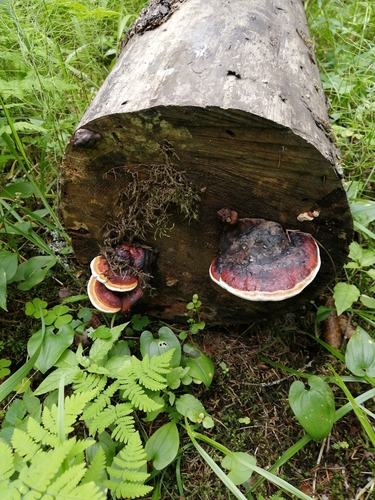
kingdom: Fungi
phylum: Basidiomycota
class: Agaricomycetes
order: Polyporales
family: Fomitopsidaceae
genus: Fomitopsis
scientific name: Fomitopsis pinicola
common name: Red-belted bracket
